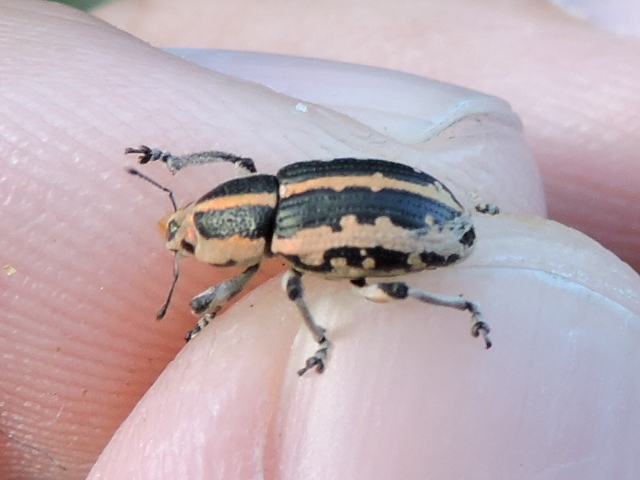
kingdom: Animalia
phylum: Arthropoda
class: Insecta
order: Coleoptera
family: Curculionidae
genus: Eudiagogus
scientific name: Eudiagogus rosenschoeldi
